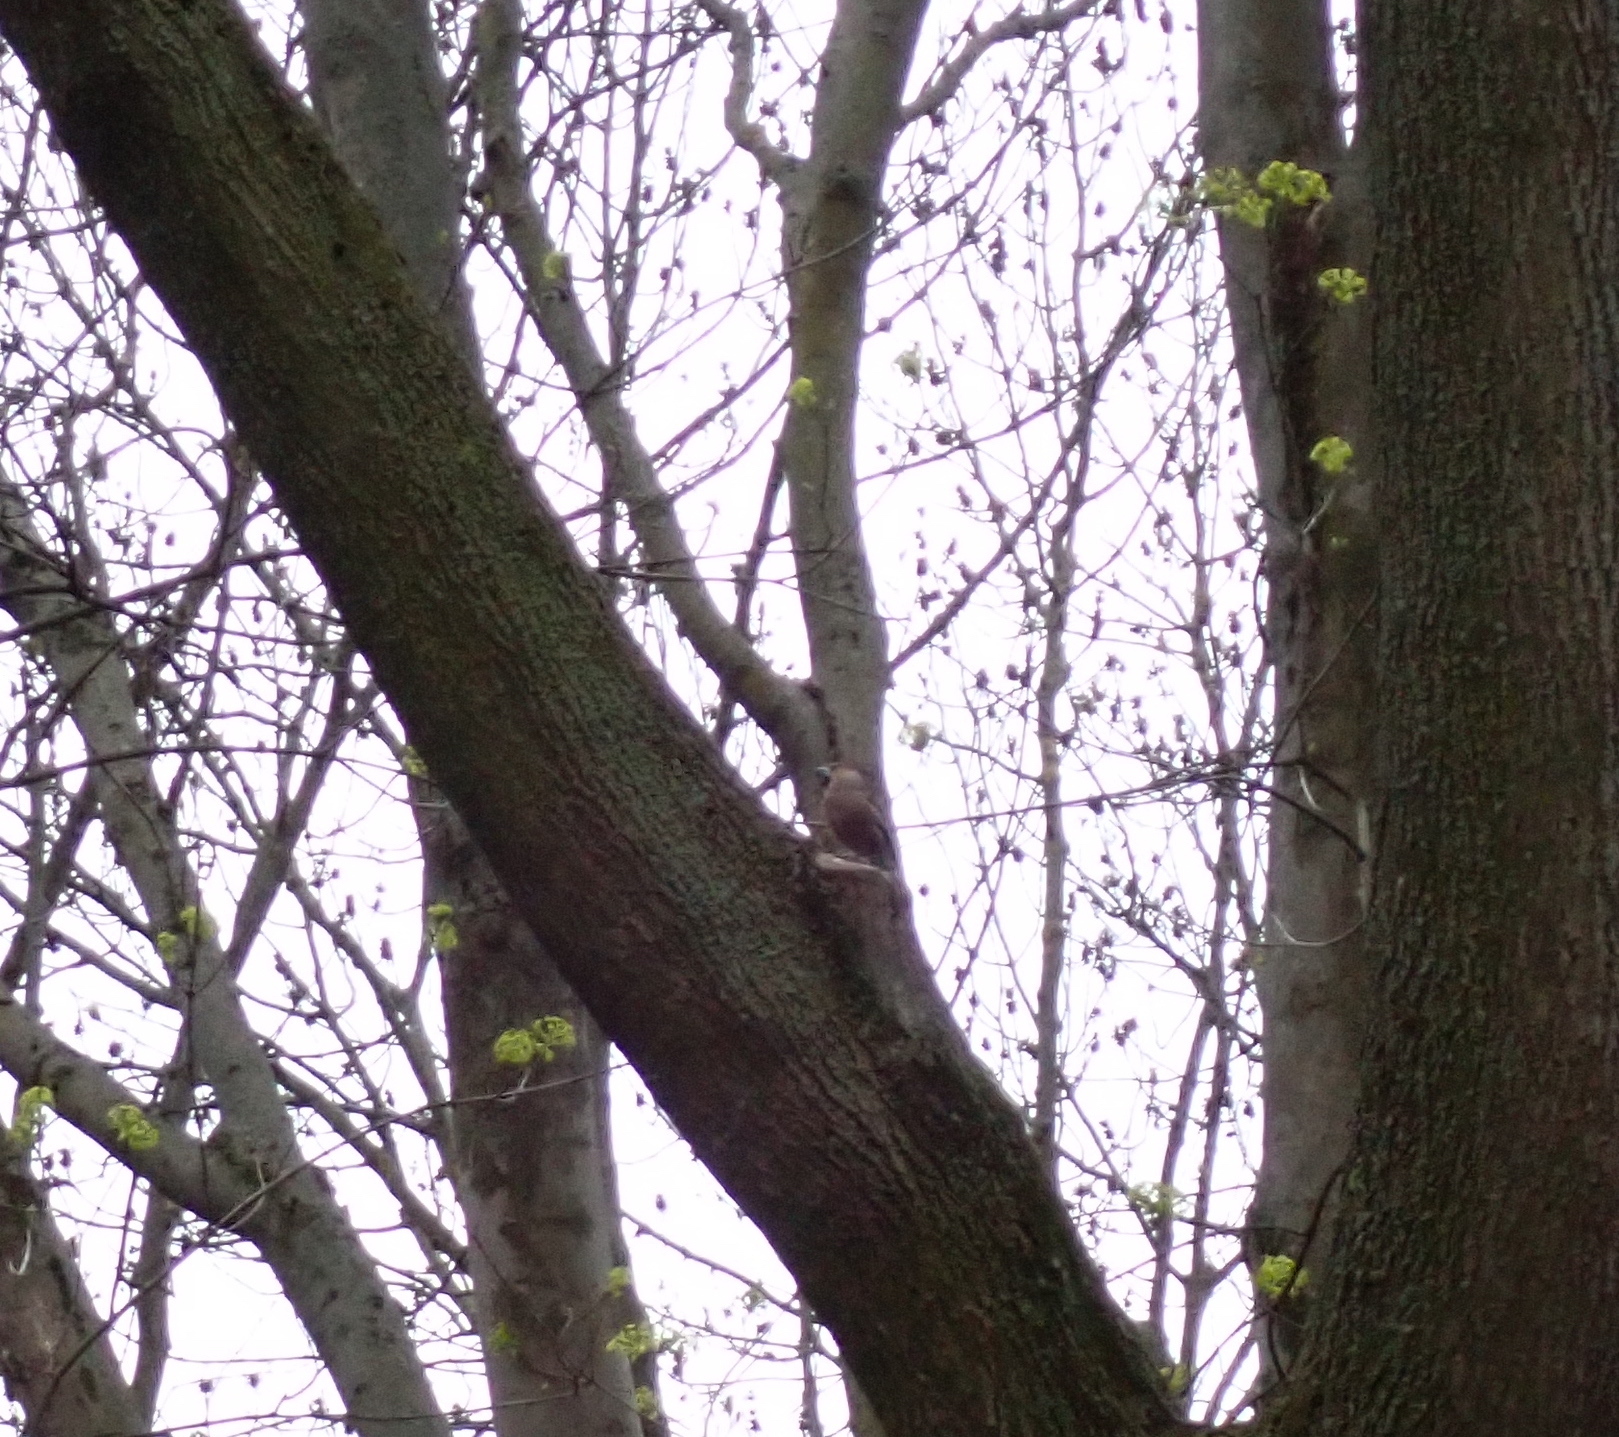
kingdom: Animalia
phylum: Chordata
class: Aves
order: Passeriformes
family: Fringillidae
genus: Coccothraustes
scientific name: Coccothraustes coccothraustes
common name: Hawfinch
